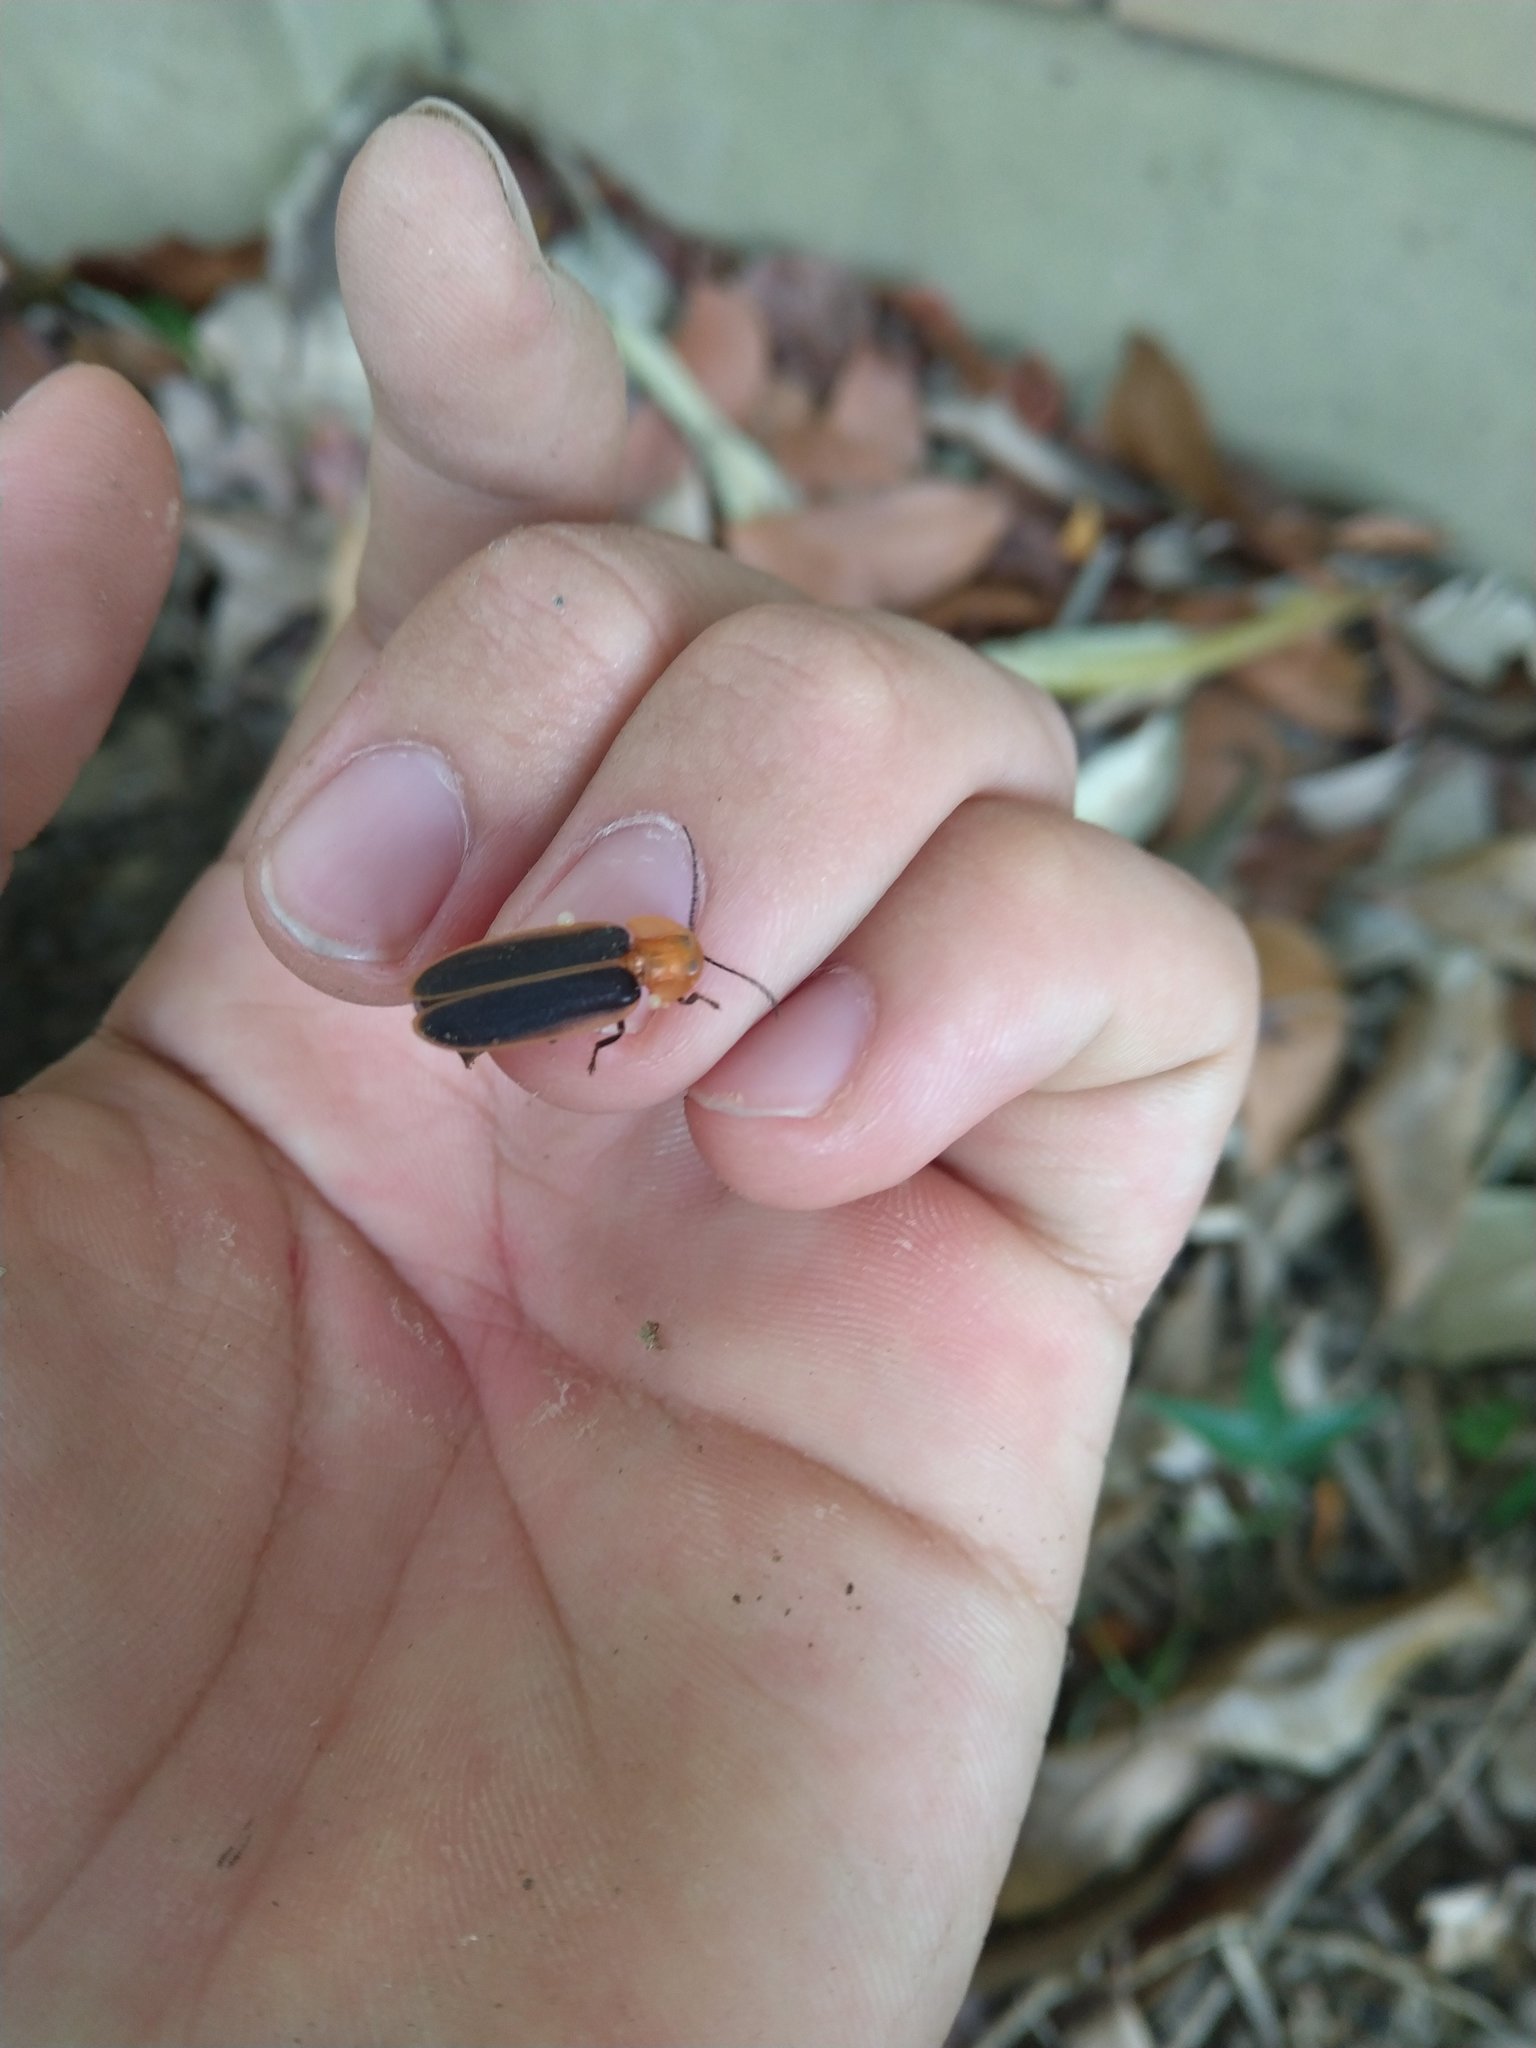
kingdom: Animalia
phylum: Arthropoda
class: Insecta
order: Coleoptera
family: Lampyridae
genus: Pyrocoelia
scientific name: Pyrocoelia analis
